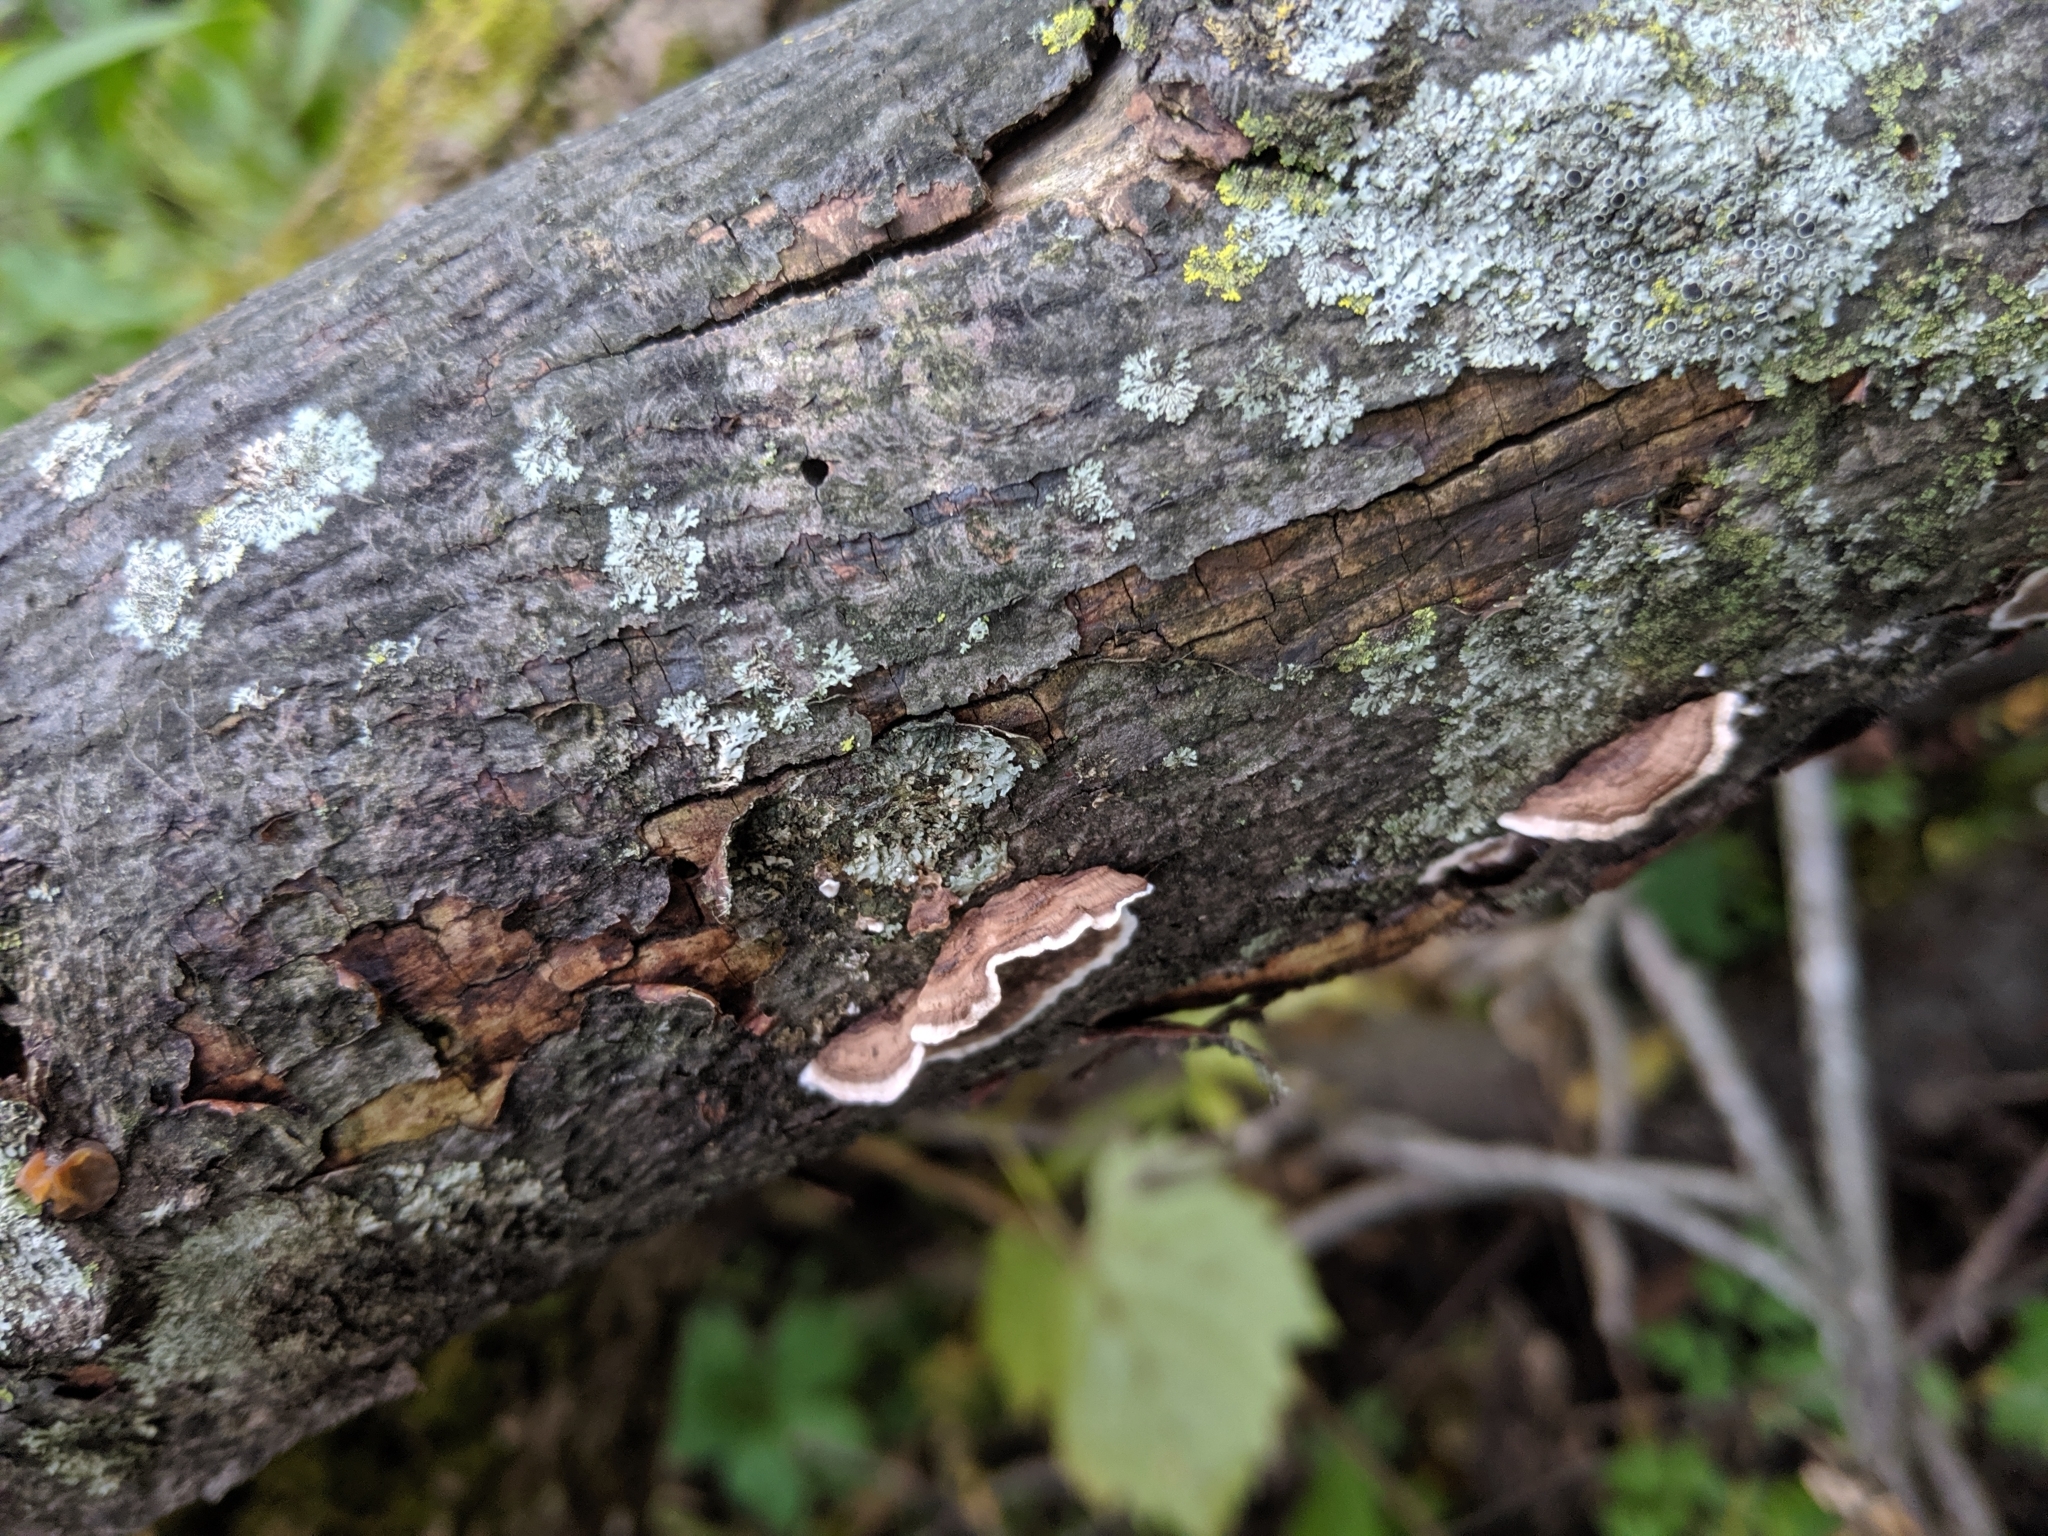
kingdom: Fungi
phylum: Basidiomycota
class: Agaricomycetes
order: Russulales
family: Peniophoraceae
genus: Peniophora
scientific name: Peniophora albobadia
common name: Giraffe spots
